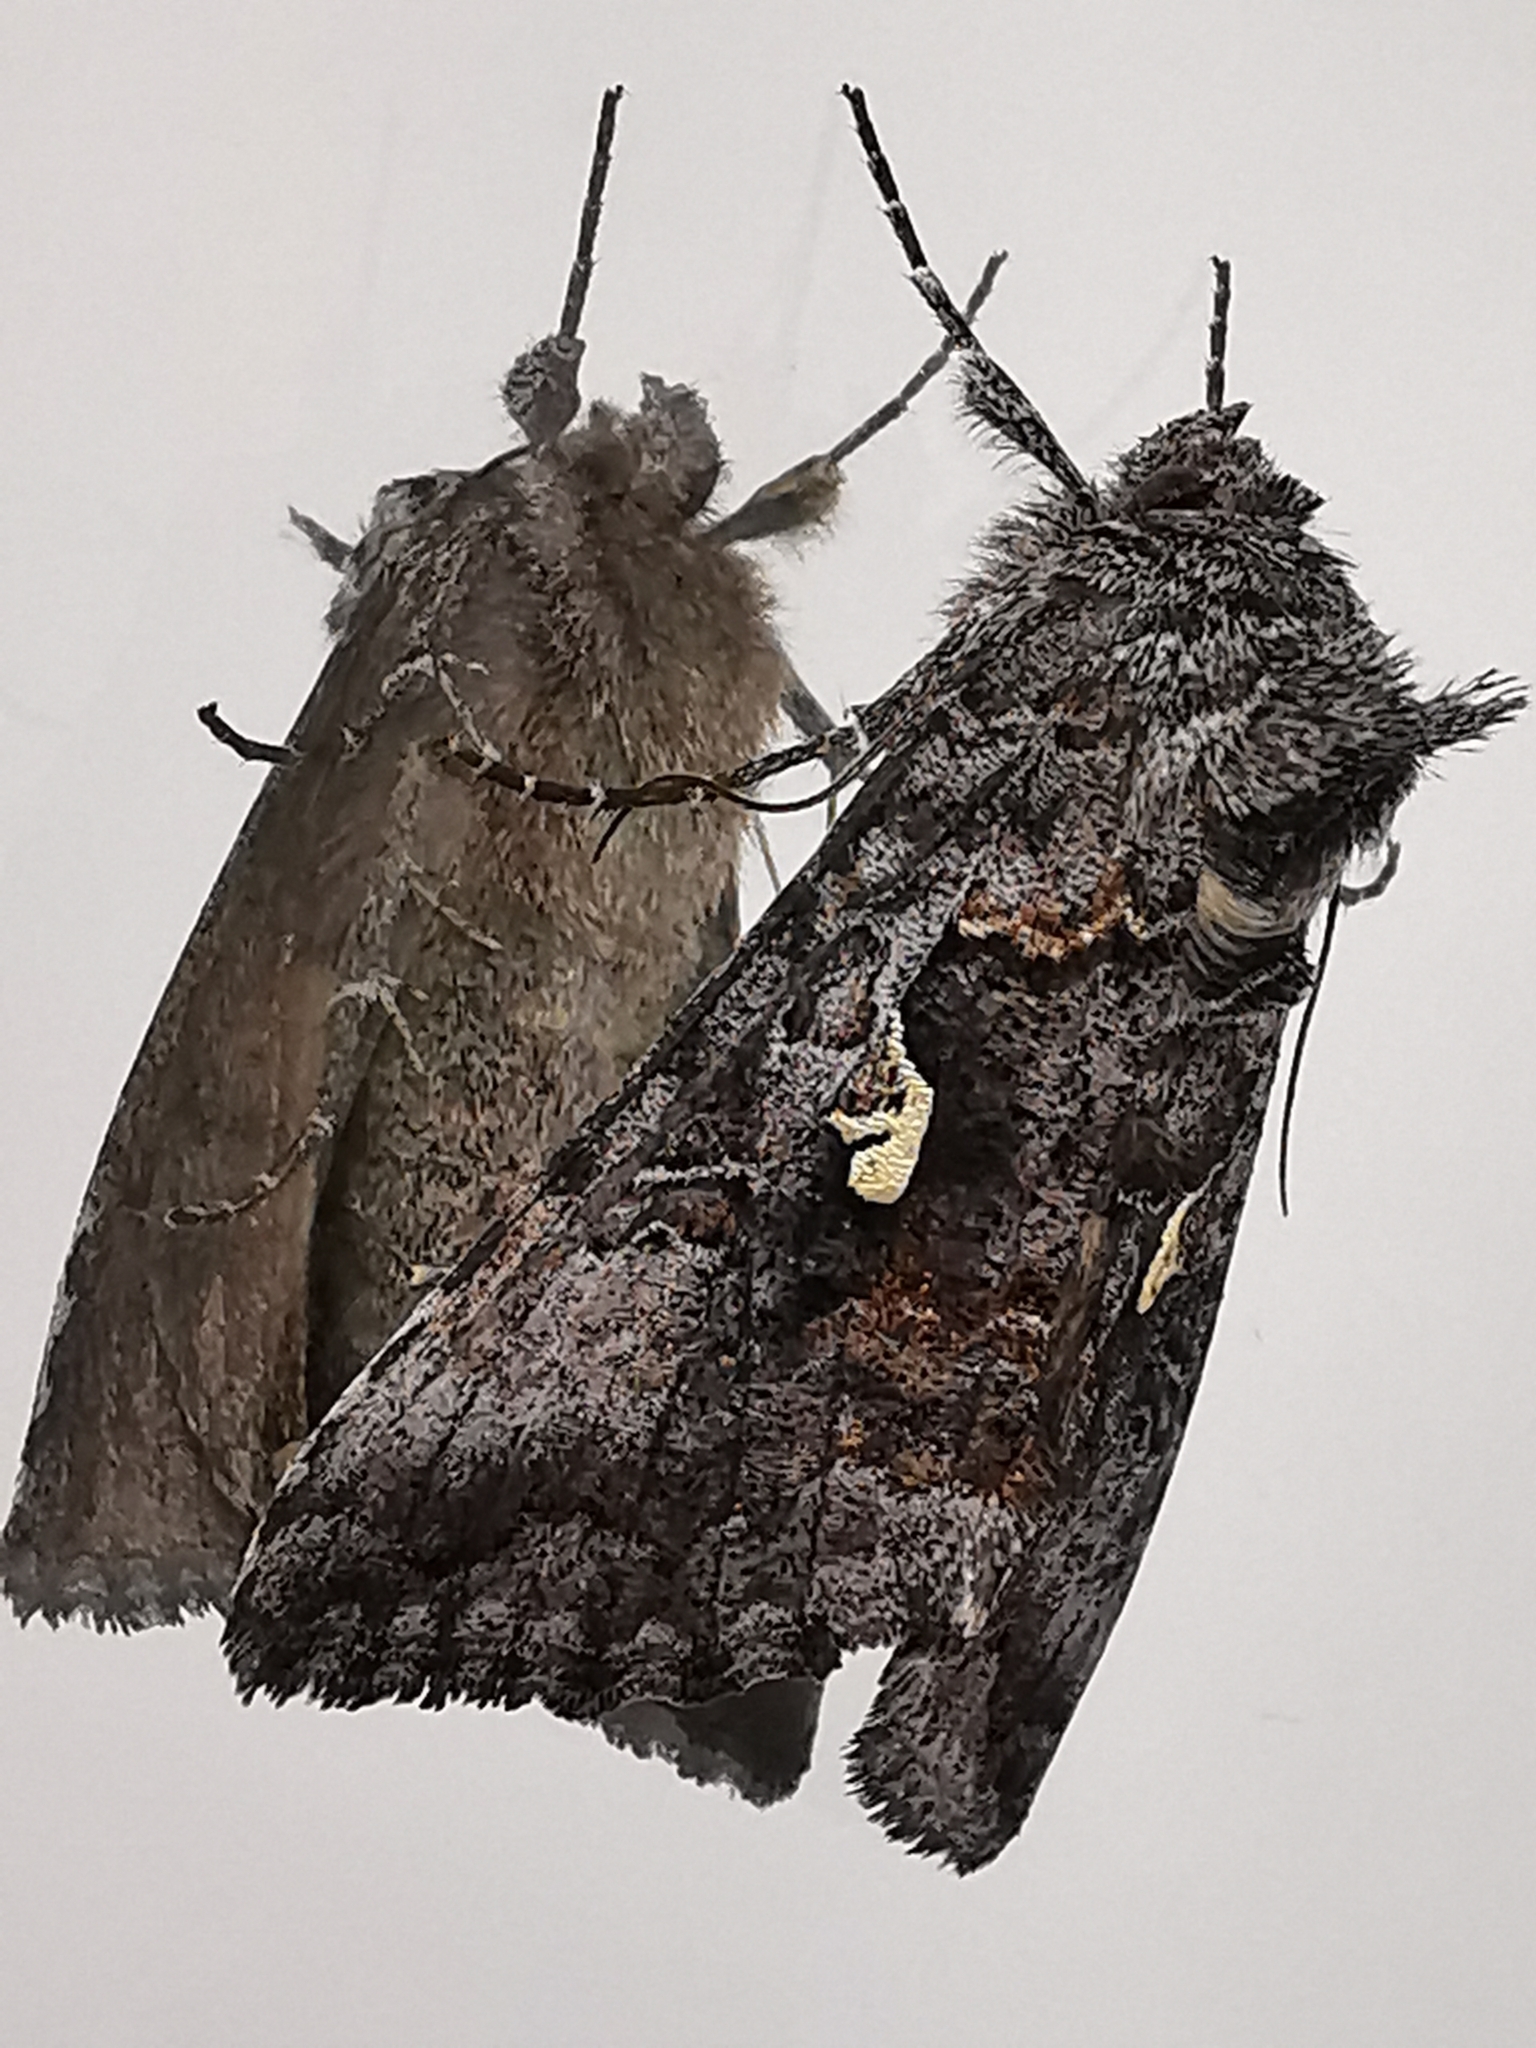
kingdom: Animalia
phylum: Arthropoda
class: Insecta
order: Lepidoptera
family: Noctuidae
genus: Syngrapha
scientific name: Syngrapha interrogationis
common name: Scarce silver y
